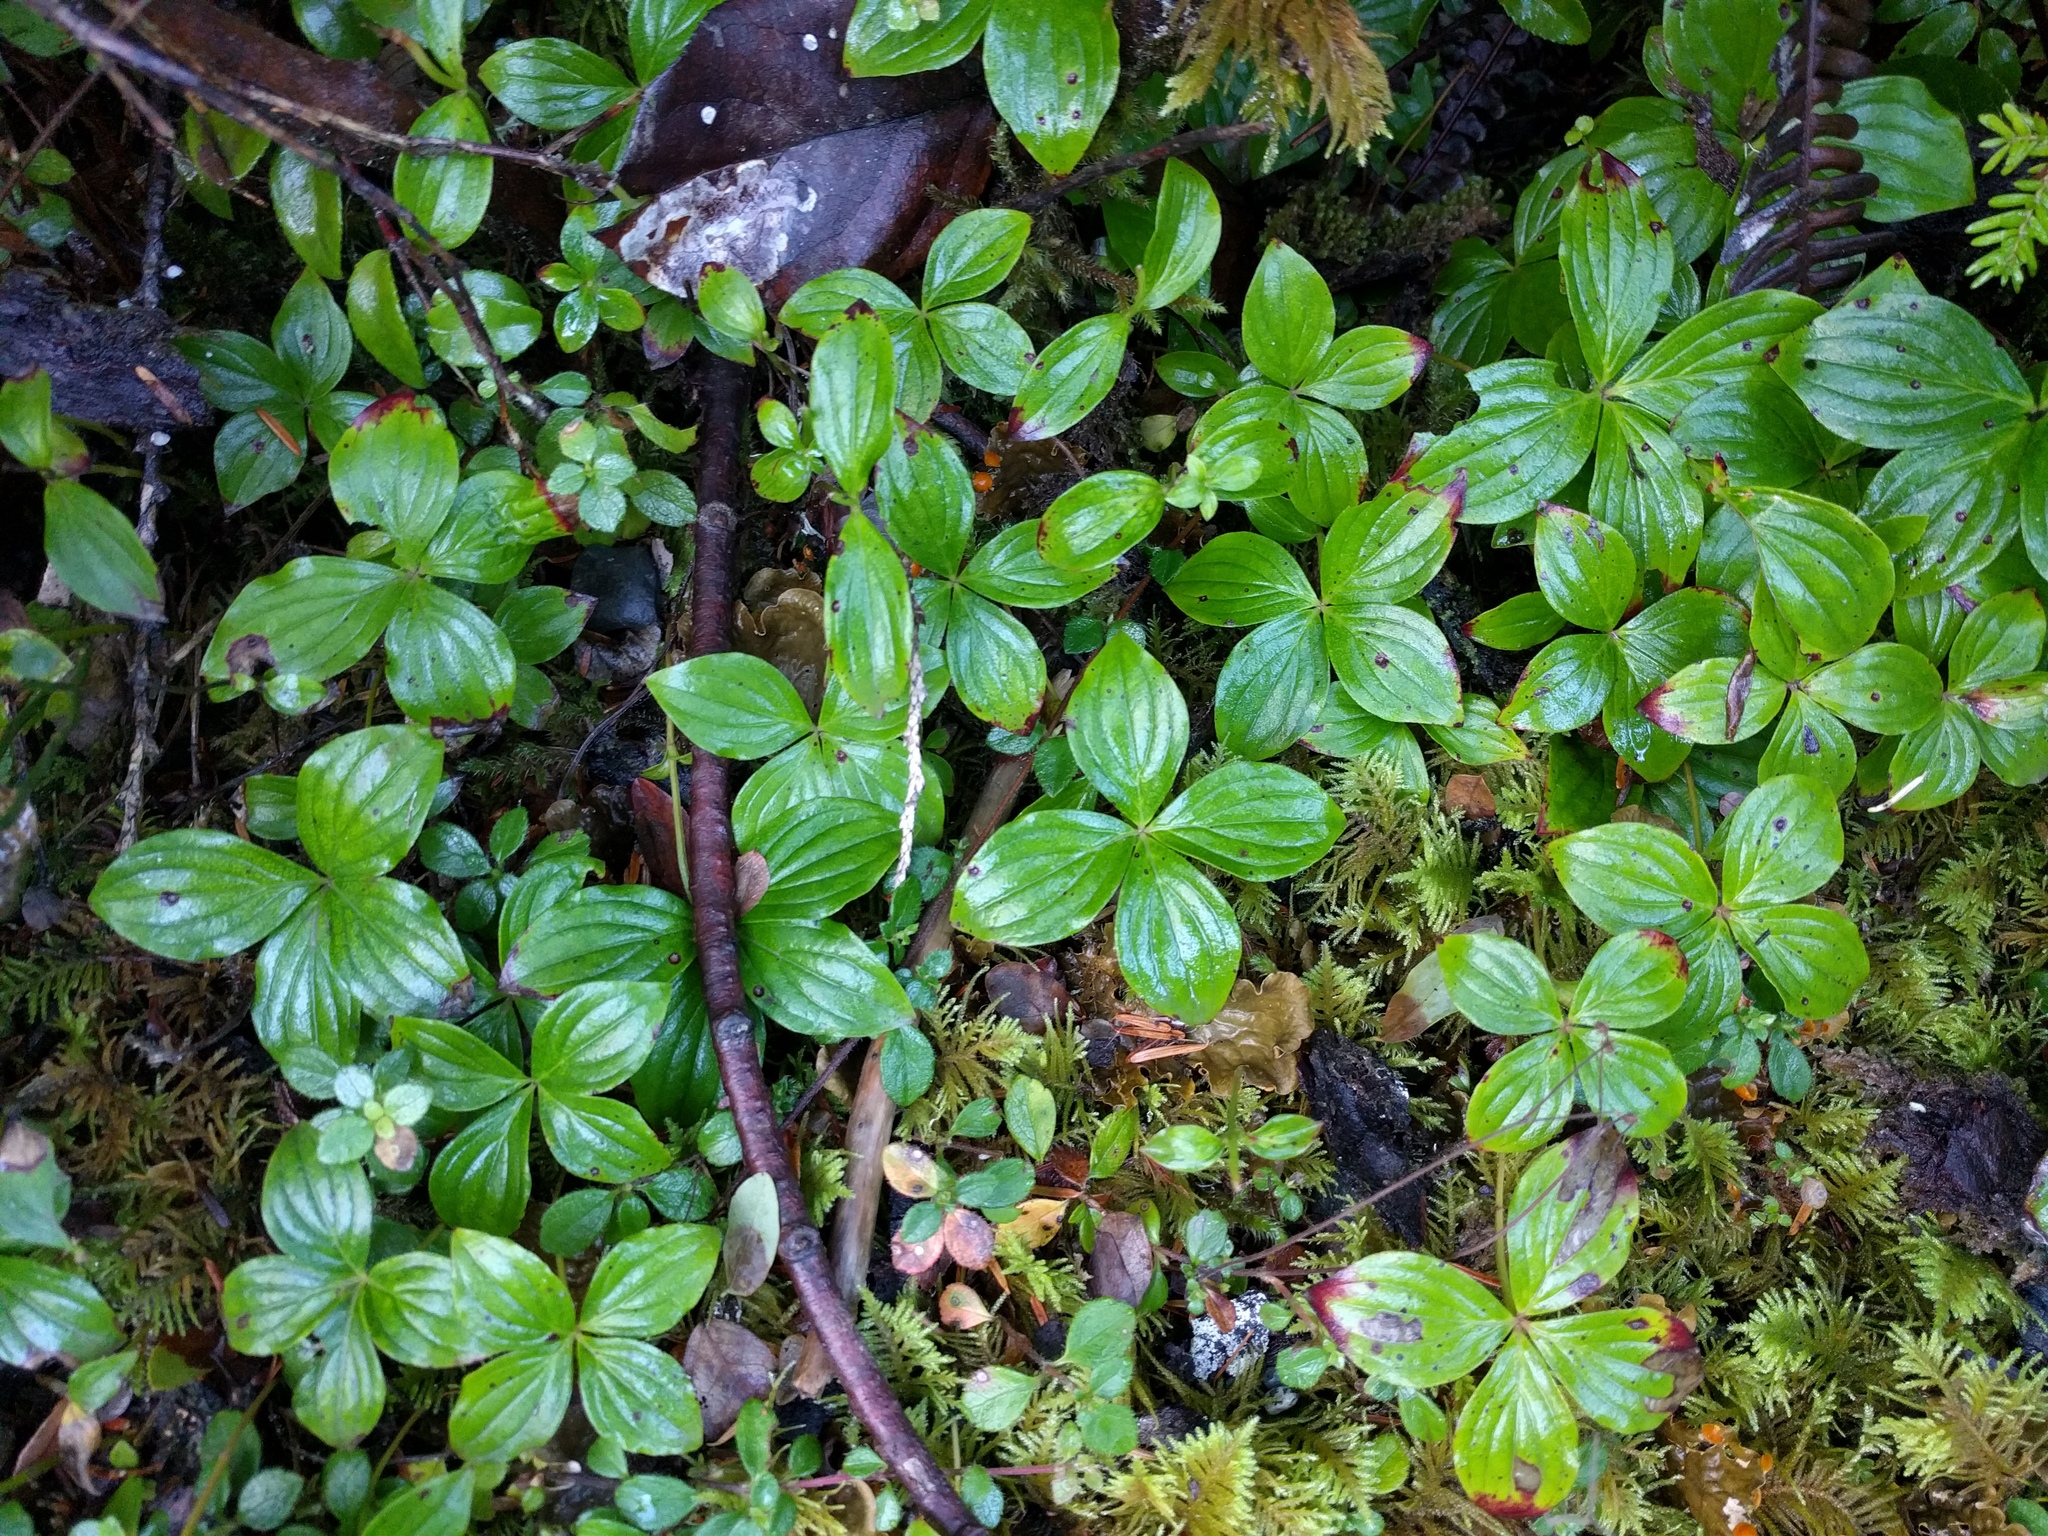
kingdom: Plantae
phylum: Tracheophyta
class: Magnoliopsida
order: Cornales
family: Cornaceae
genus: Cornus
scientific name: Cornus unalaschkensis
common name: Alaska bunchberry
